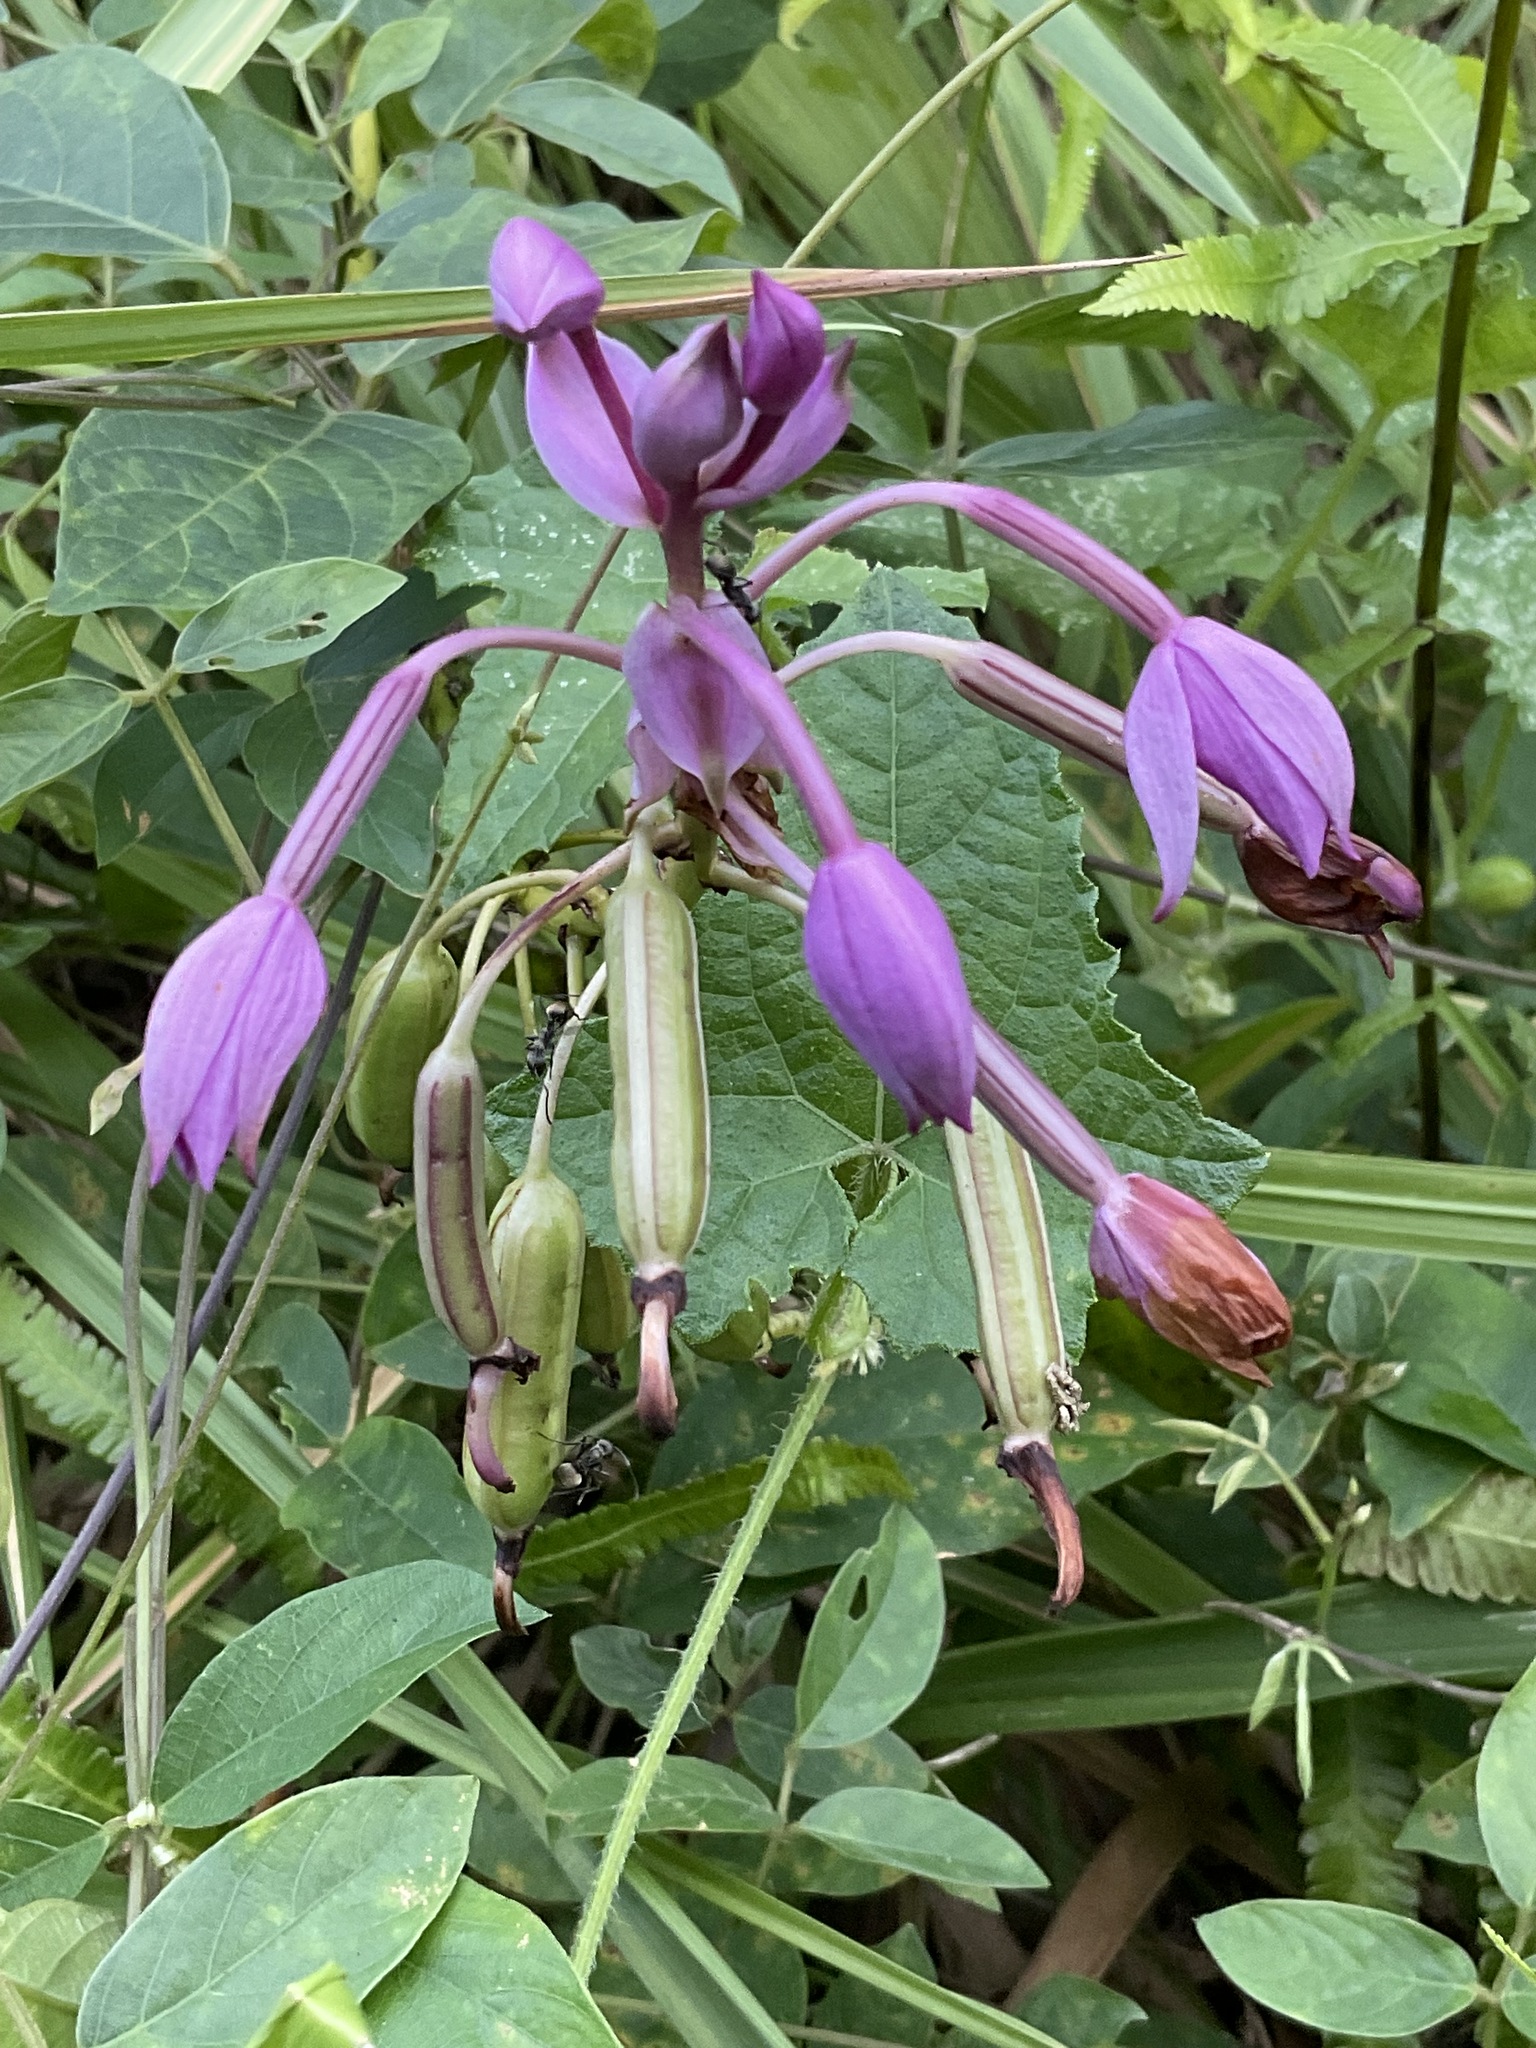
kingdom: Plantae
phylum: Tracheophyta
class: Liliopsida
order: Asparagales
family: Orchidaceae
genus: Spathoglottis
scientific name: Spathoglottis plicata
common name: Philippine ground orchid
